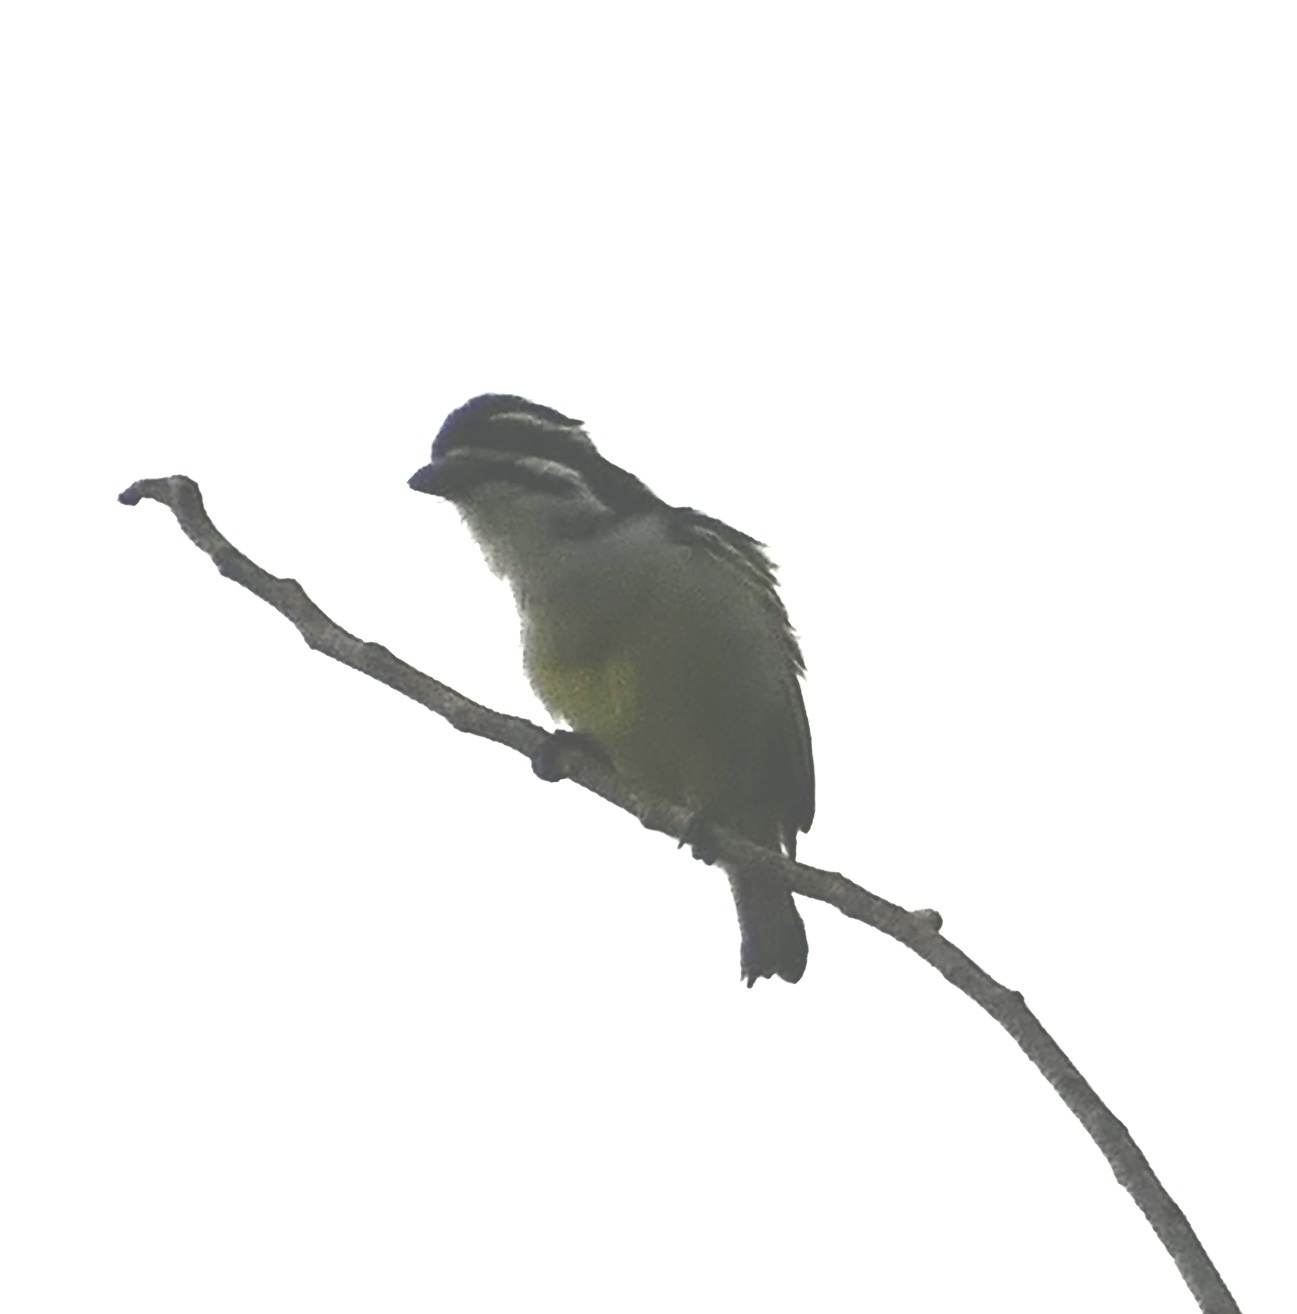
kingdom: Animalia
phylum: Chordata
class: Aves
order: Piciformes
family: Lybiidae
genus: Pogoniulus
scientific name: Pogoniulus bilineatus
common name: Yellow-rumped tinkerbird
